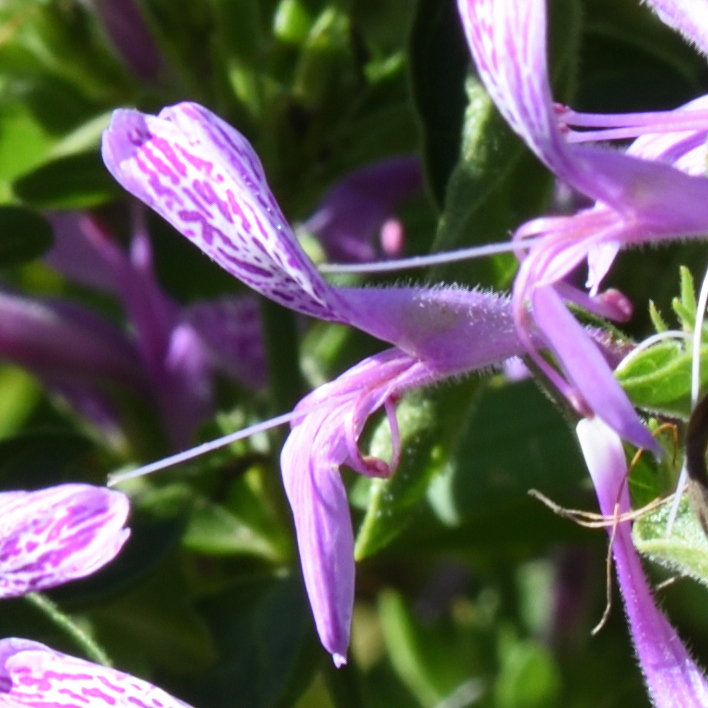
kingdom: Plantae
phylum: Tracheophyta
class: Magnoliopsida
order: Lamiales
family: Acanthaceae
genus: Hypoestes
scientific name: Hypoestes aristata
